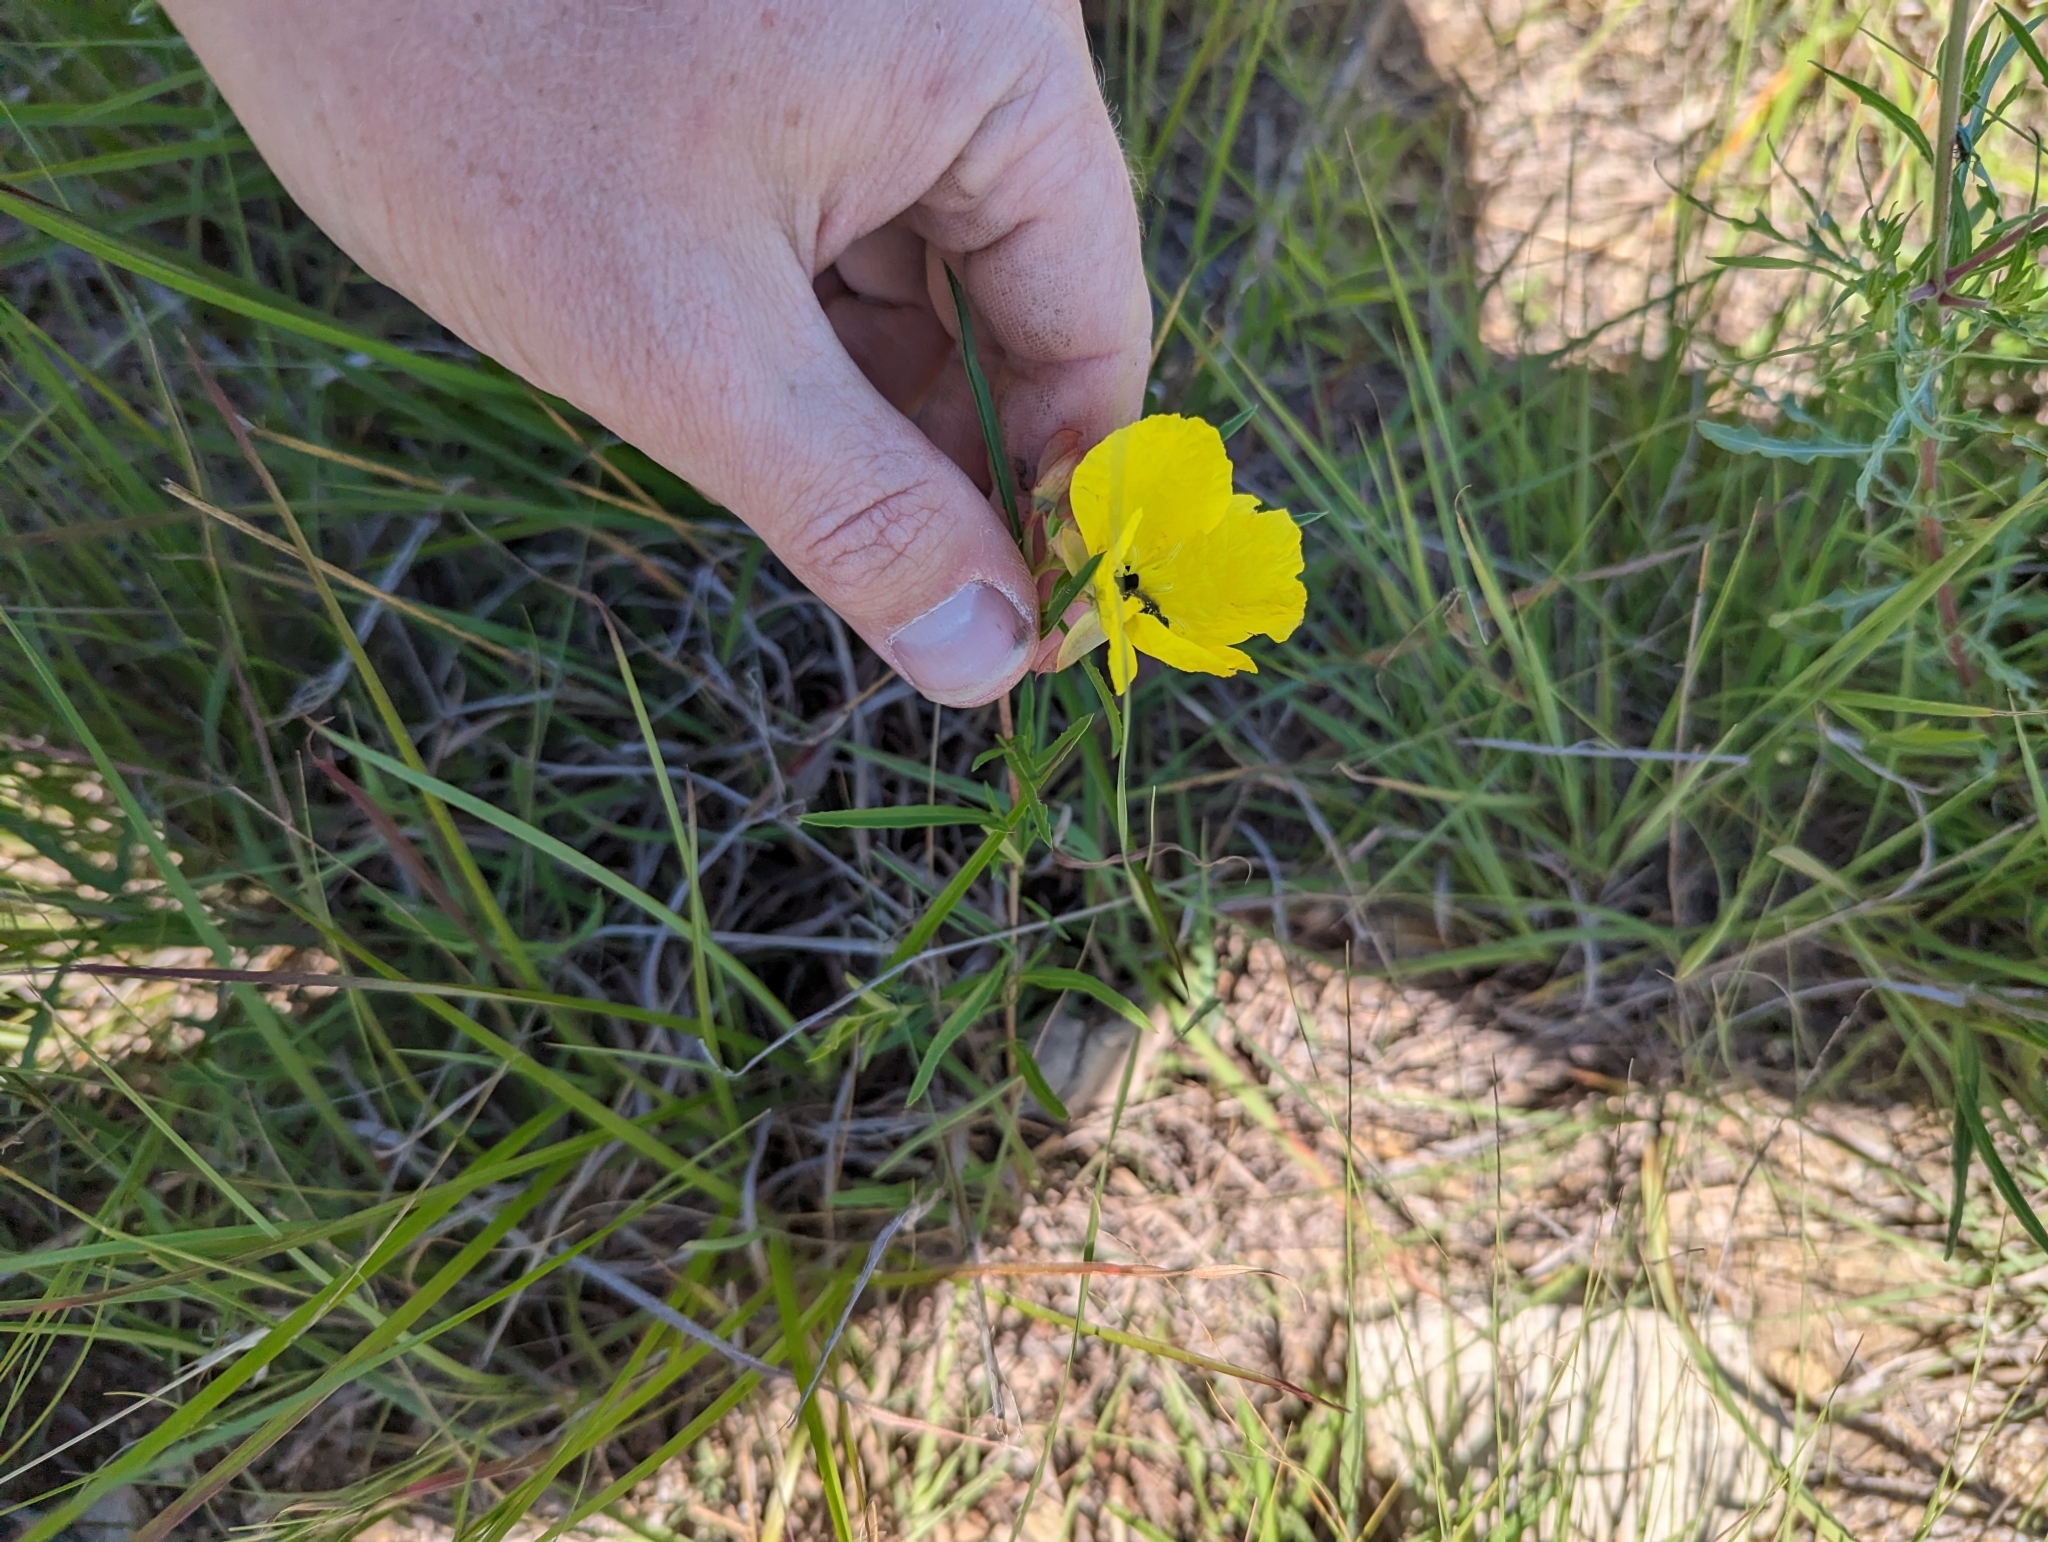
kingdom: Plantae
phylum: Tracheophyta
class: Magnoliopsida
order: Myrtales
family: Onagraceae
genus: Oenothera
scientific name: Oenothera
